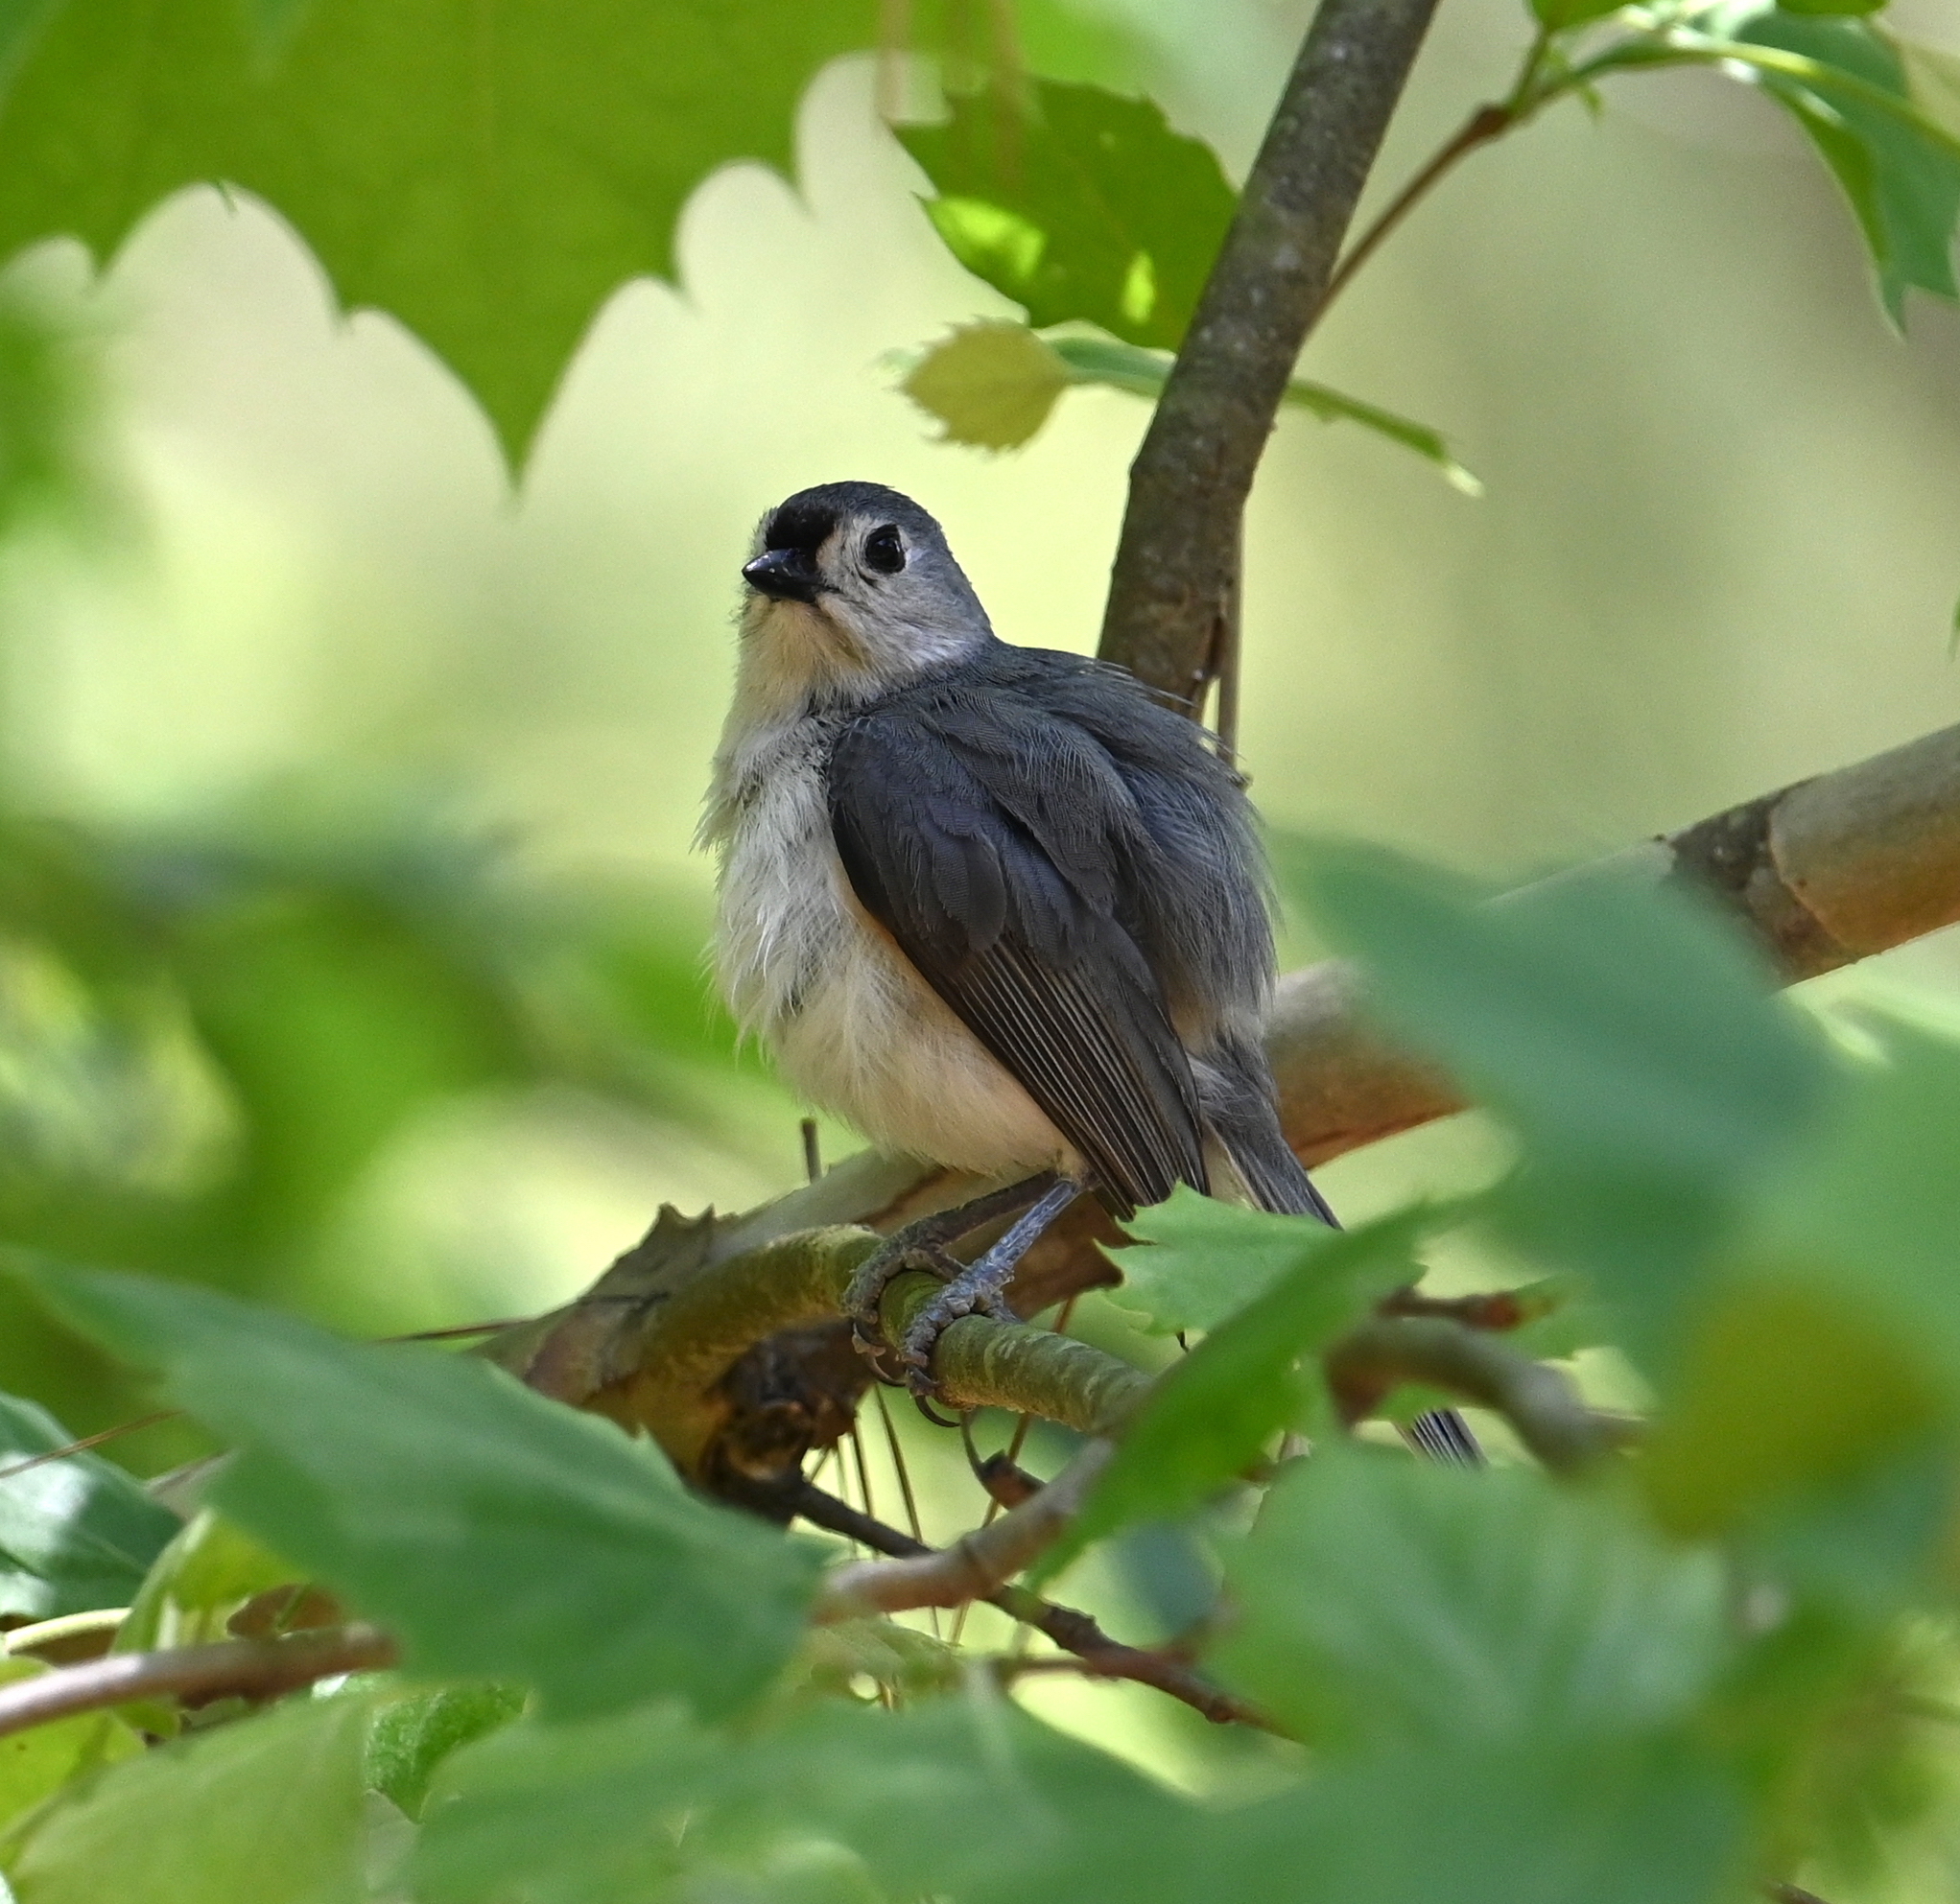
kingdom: Animalia
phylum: Chordata
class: Aves
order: Passeriformes
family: Paridae
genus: Baeolophus
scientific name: Baeolophus bicolor
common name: Tufted titmouse
